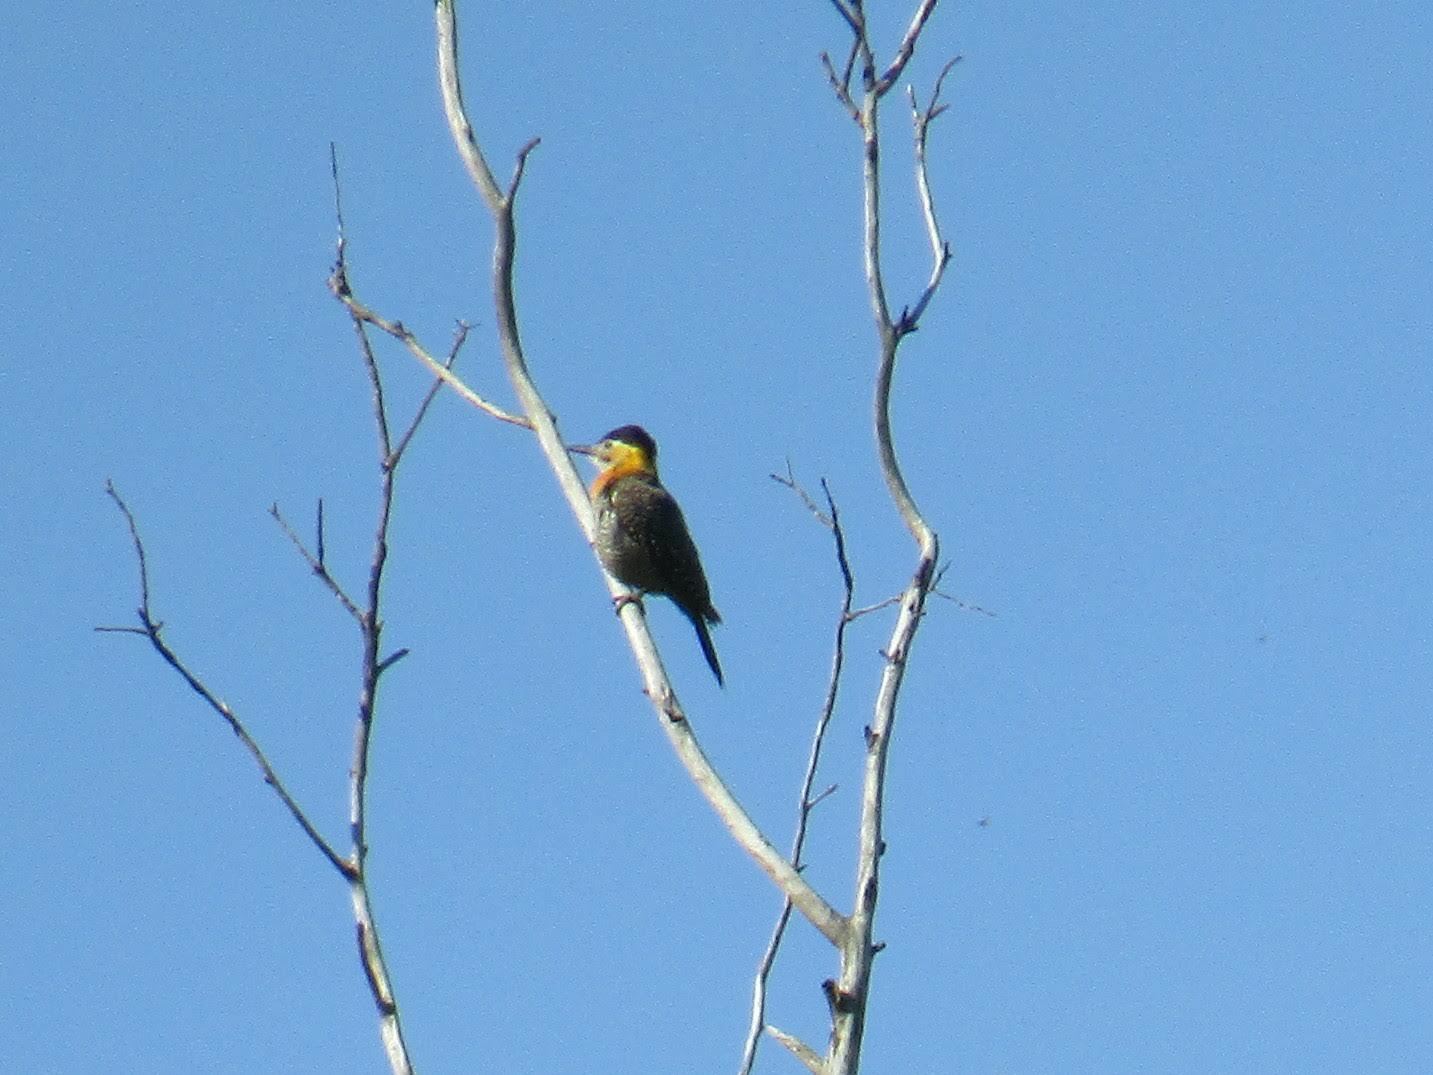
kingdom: Animalia
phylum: Chordata
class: Aves
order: Piciformes
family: Picidae
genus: Colaptes
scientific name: Colaptes campestris
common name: Campo flicker
